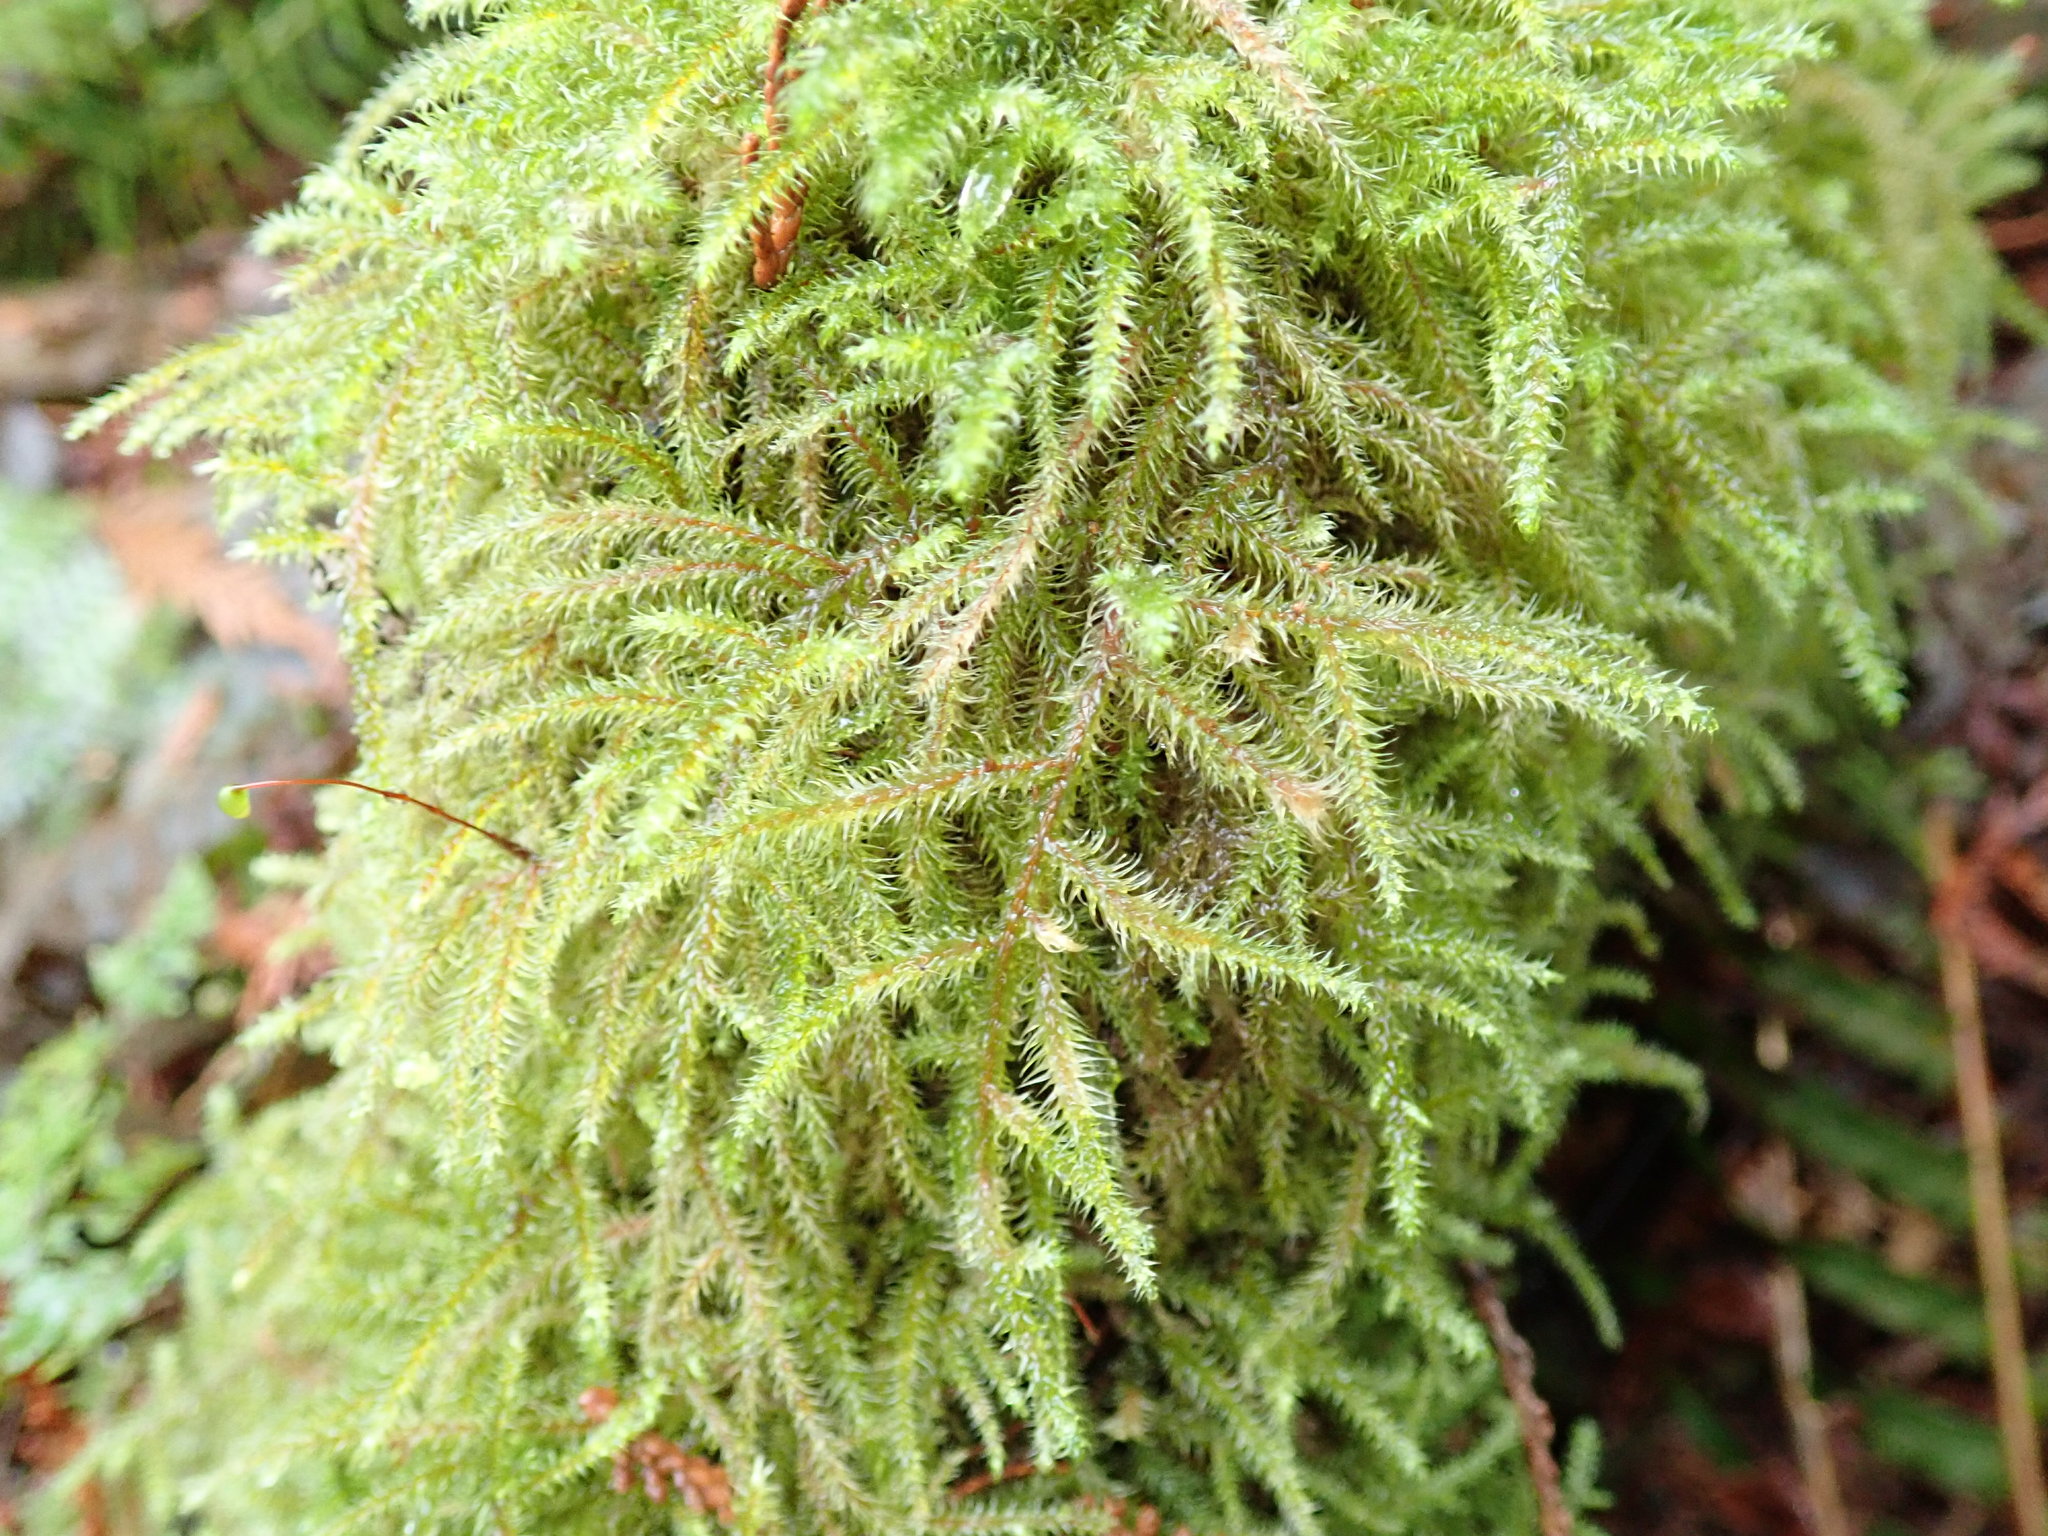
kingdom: Plantae
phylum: Bryophyta
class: Bryopsida
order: Hypnales
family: Hylocomiaceae
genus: Rhytidiadelphus
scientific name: Rhytidiadelphus loreus
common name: Lanky moss
